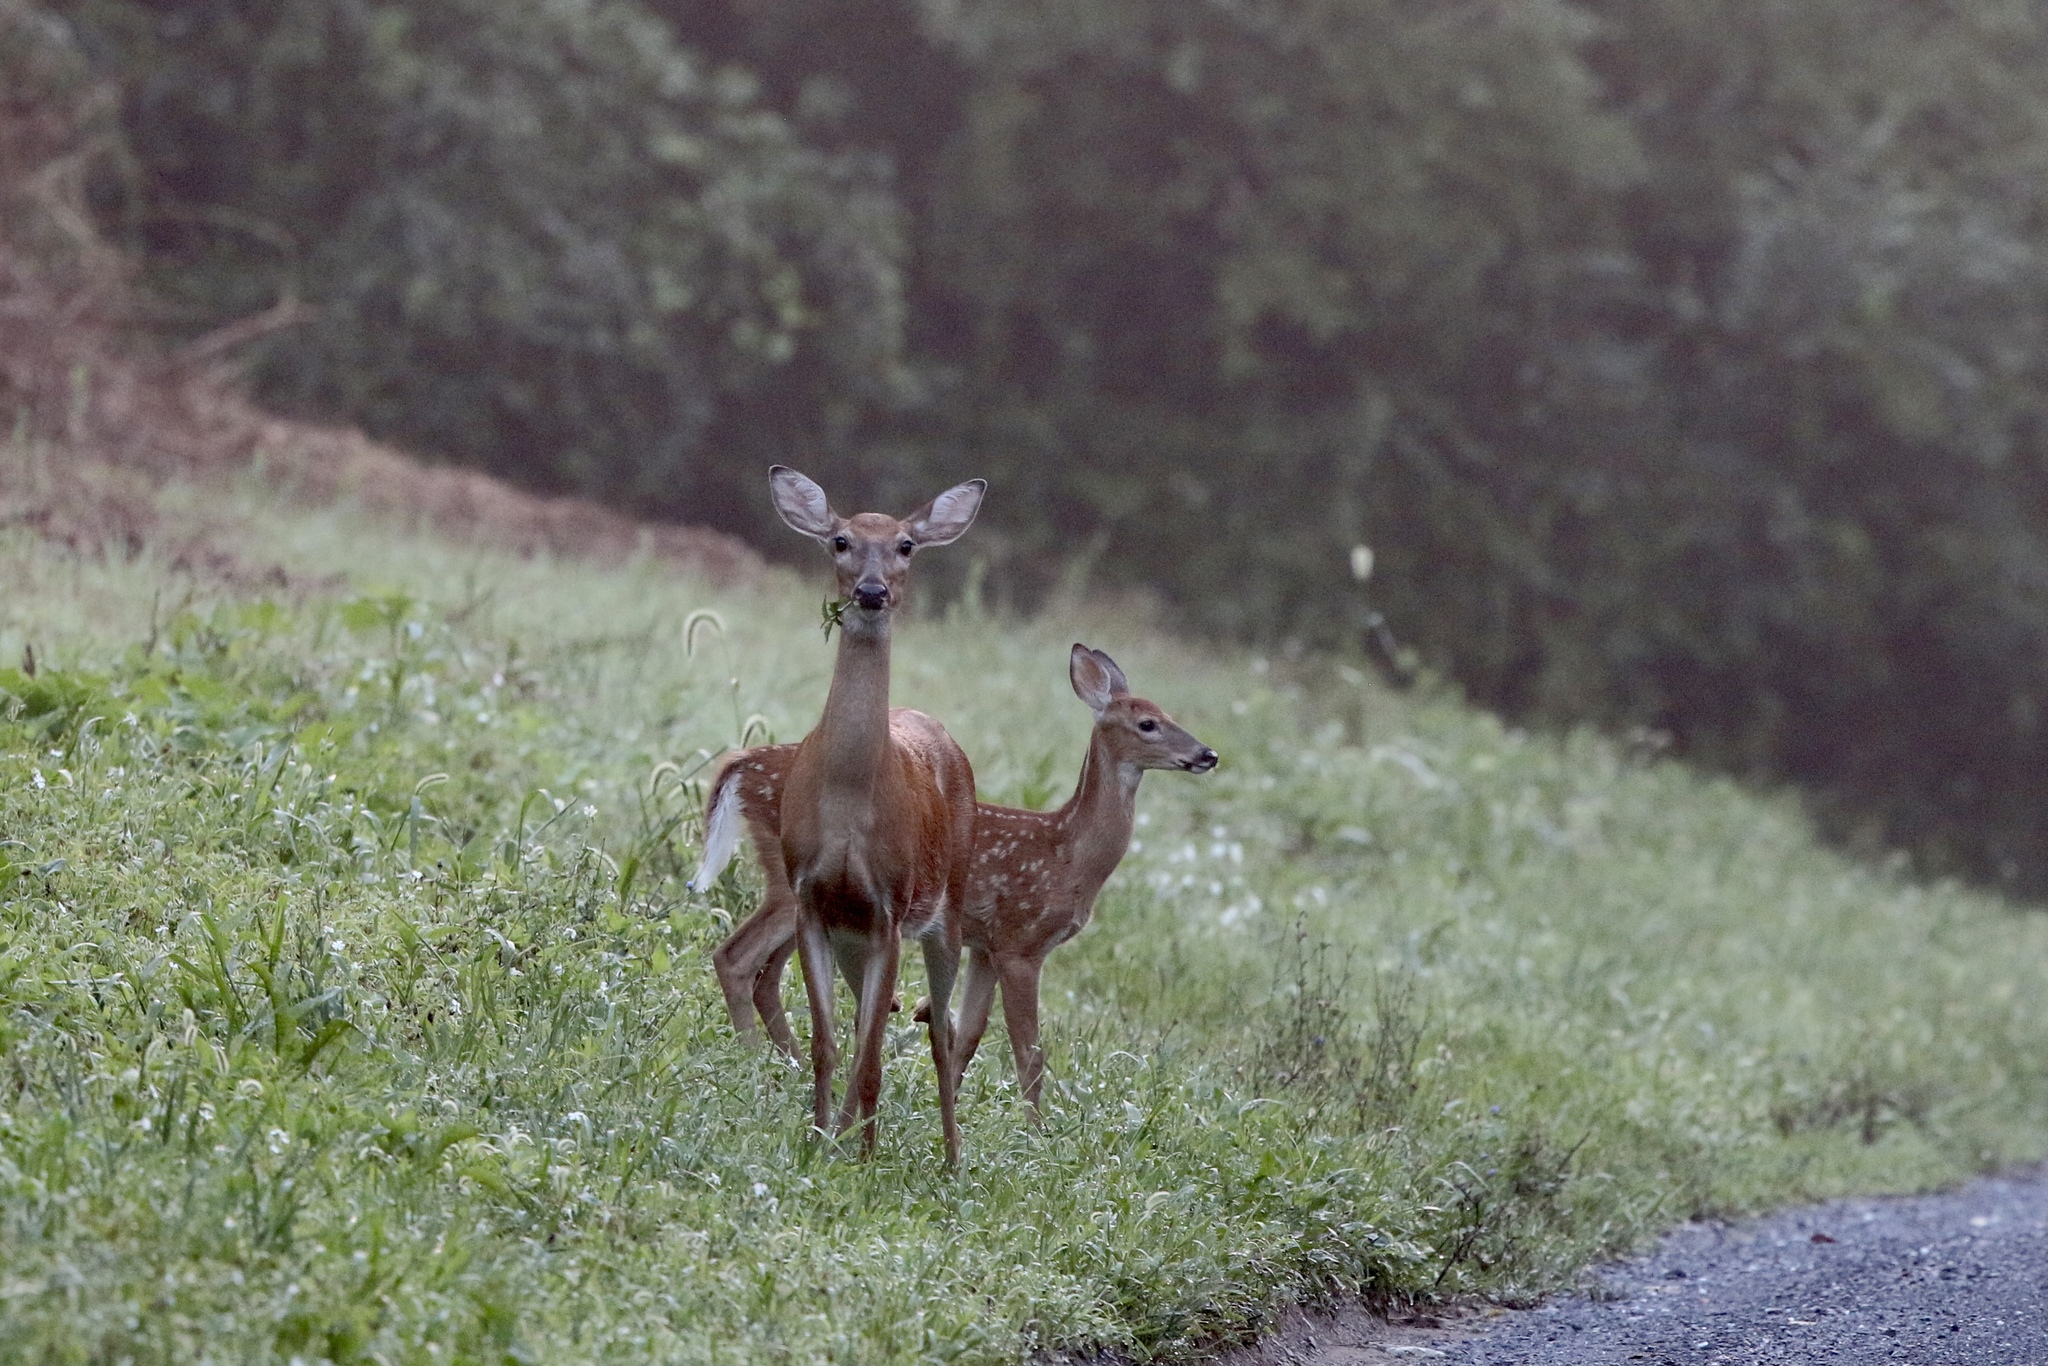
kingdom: Animalia
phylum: Chordata
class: Mammalia
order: Artiodactyla
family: Cervidae
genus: Odocoileus
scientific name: Odocoileus virginianus
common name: White-tailed deer
